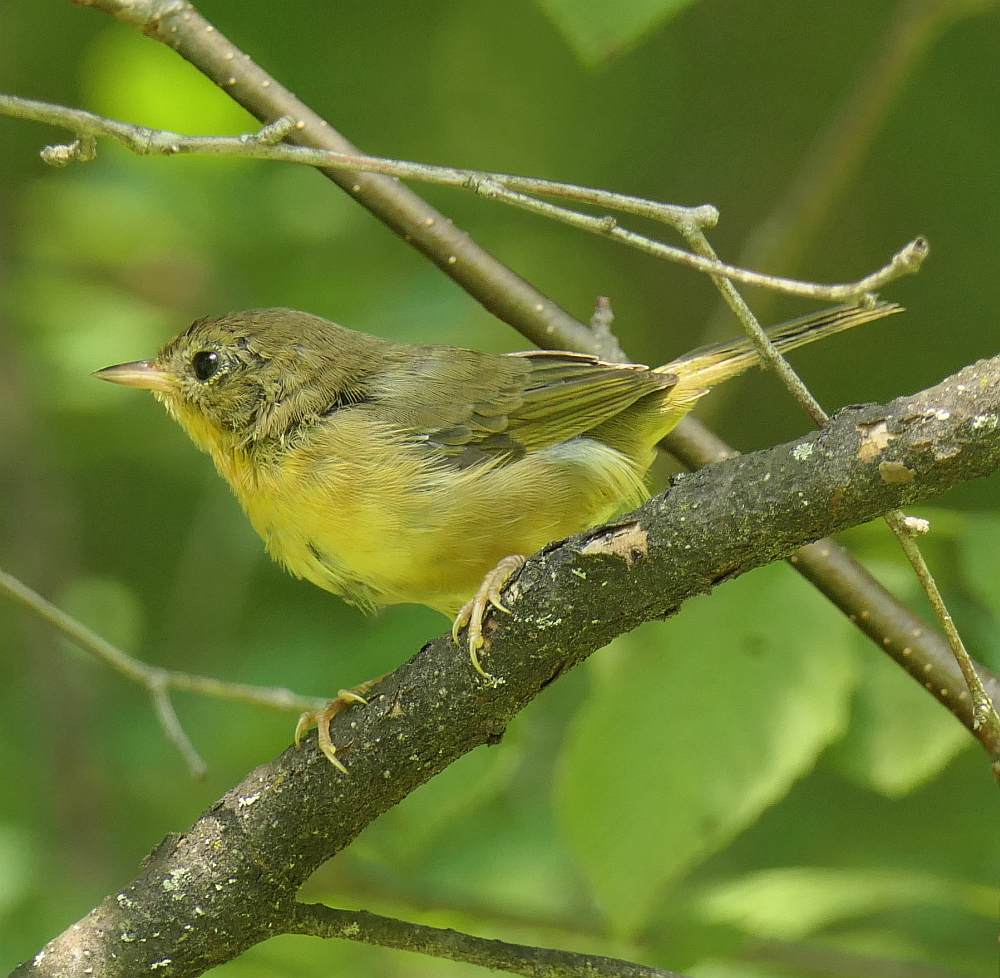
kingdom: Animalia
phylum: Chordata
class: Aves
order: Passeriformes
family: Parulidae
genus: Geothlypis
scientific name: Geothlypis trichas
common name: Common yellowthroat
